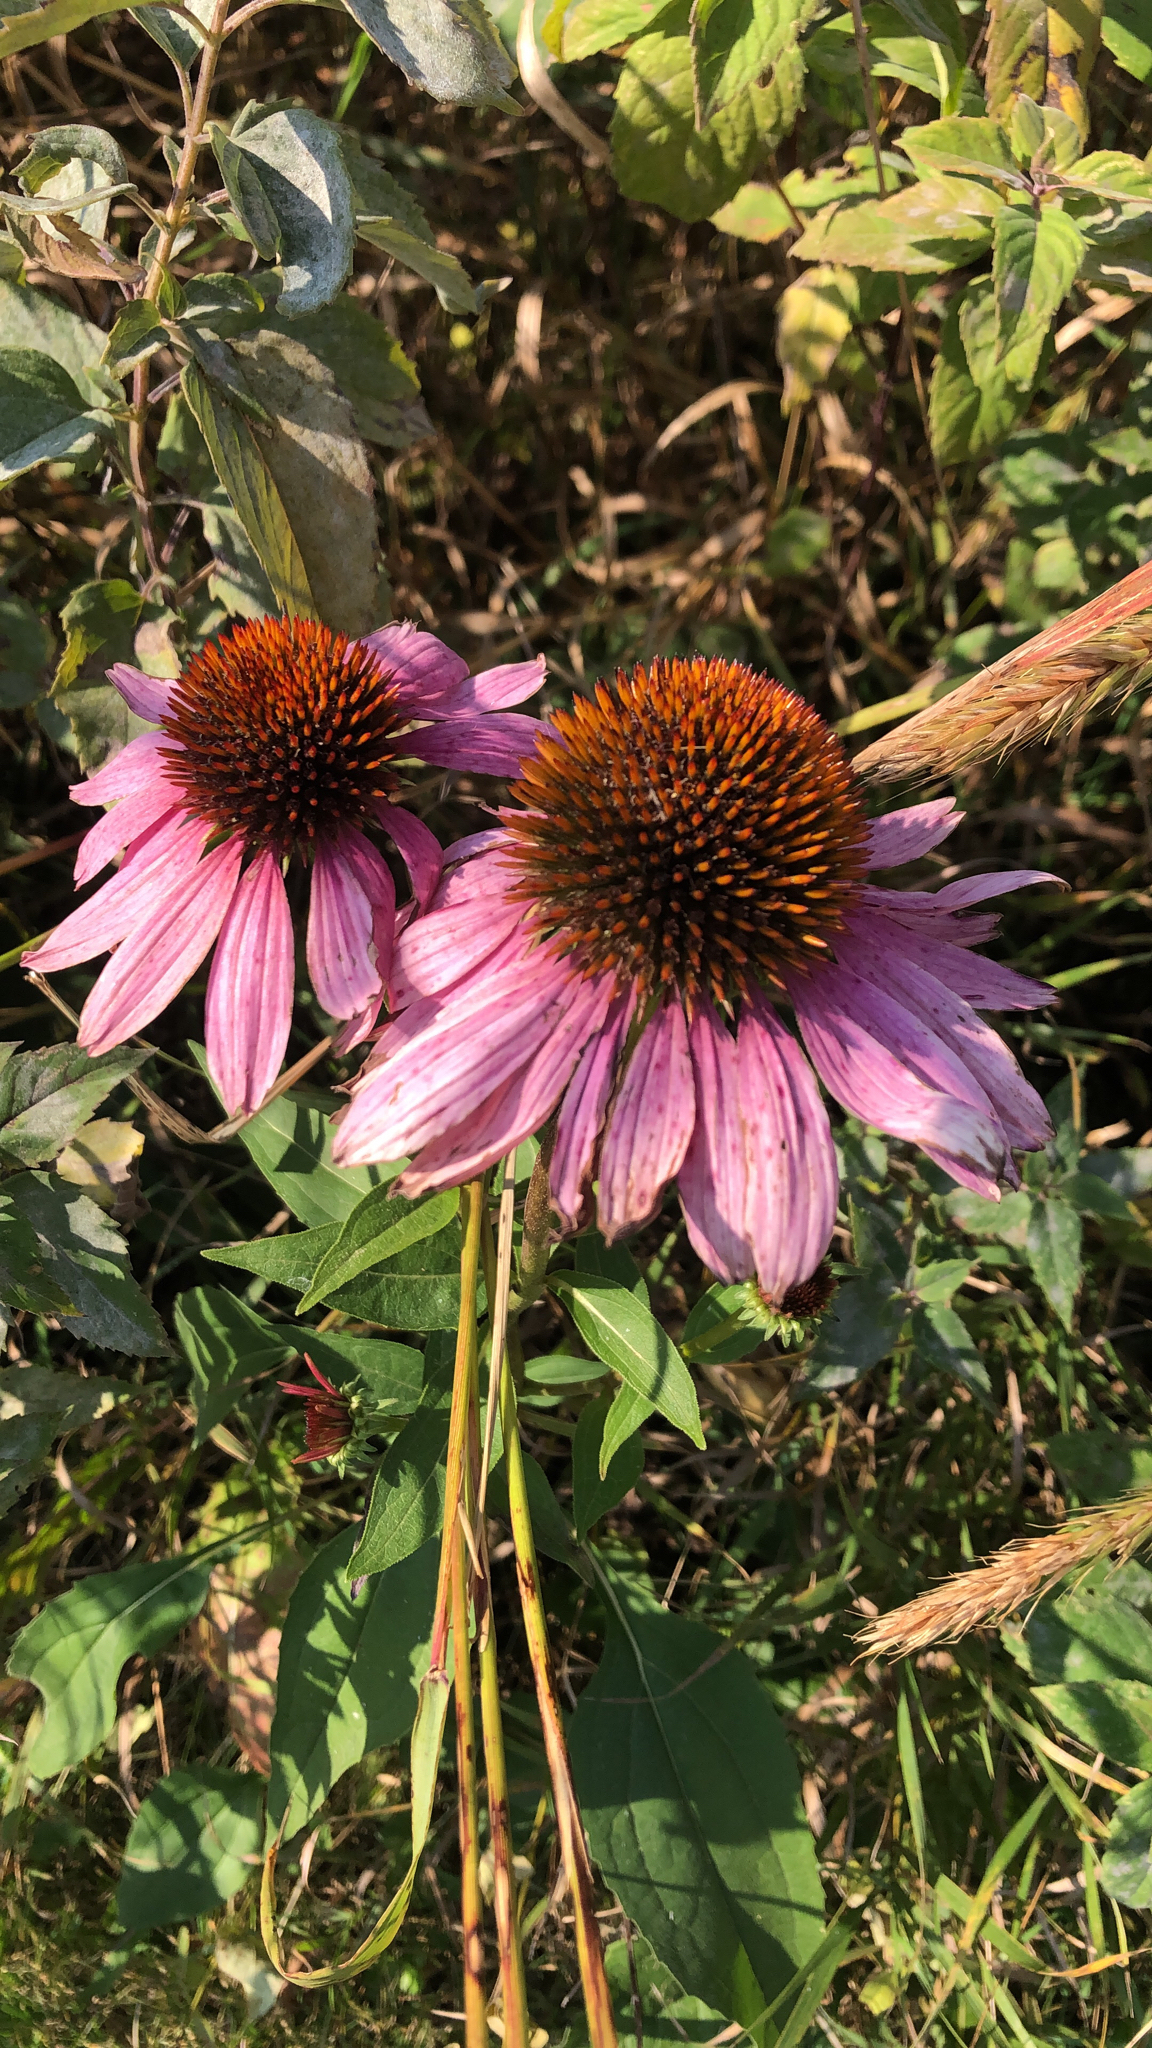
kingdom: Plantae
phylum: Tracheophyta
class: Magnoliopsida
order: Asterales
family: Asteraceae
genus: Echinacea
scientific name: Echinacea purpurea
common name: Broad-leaved purple coneflower
